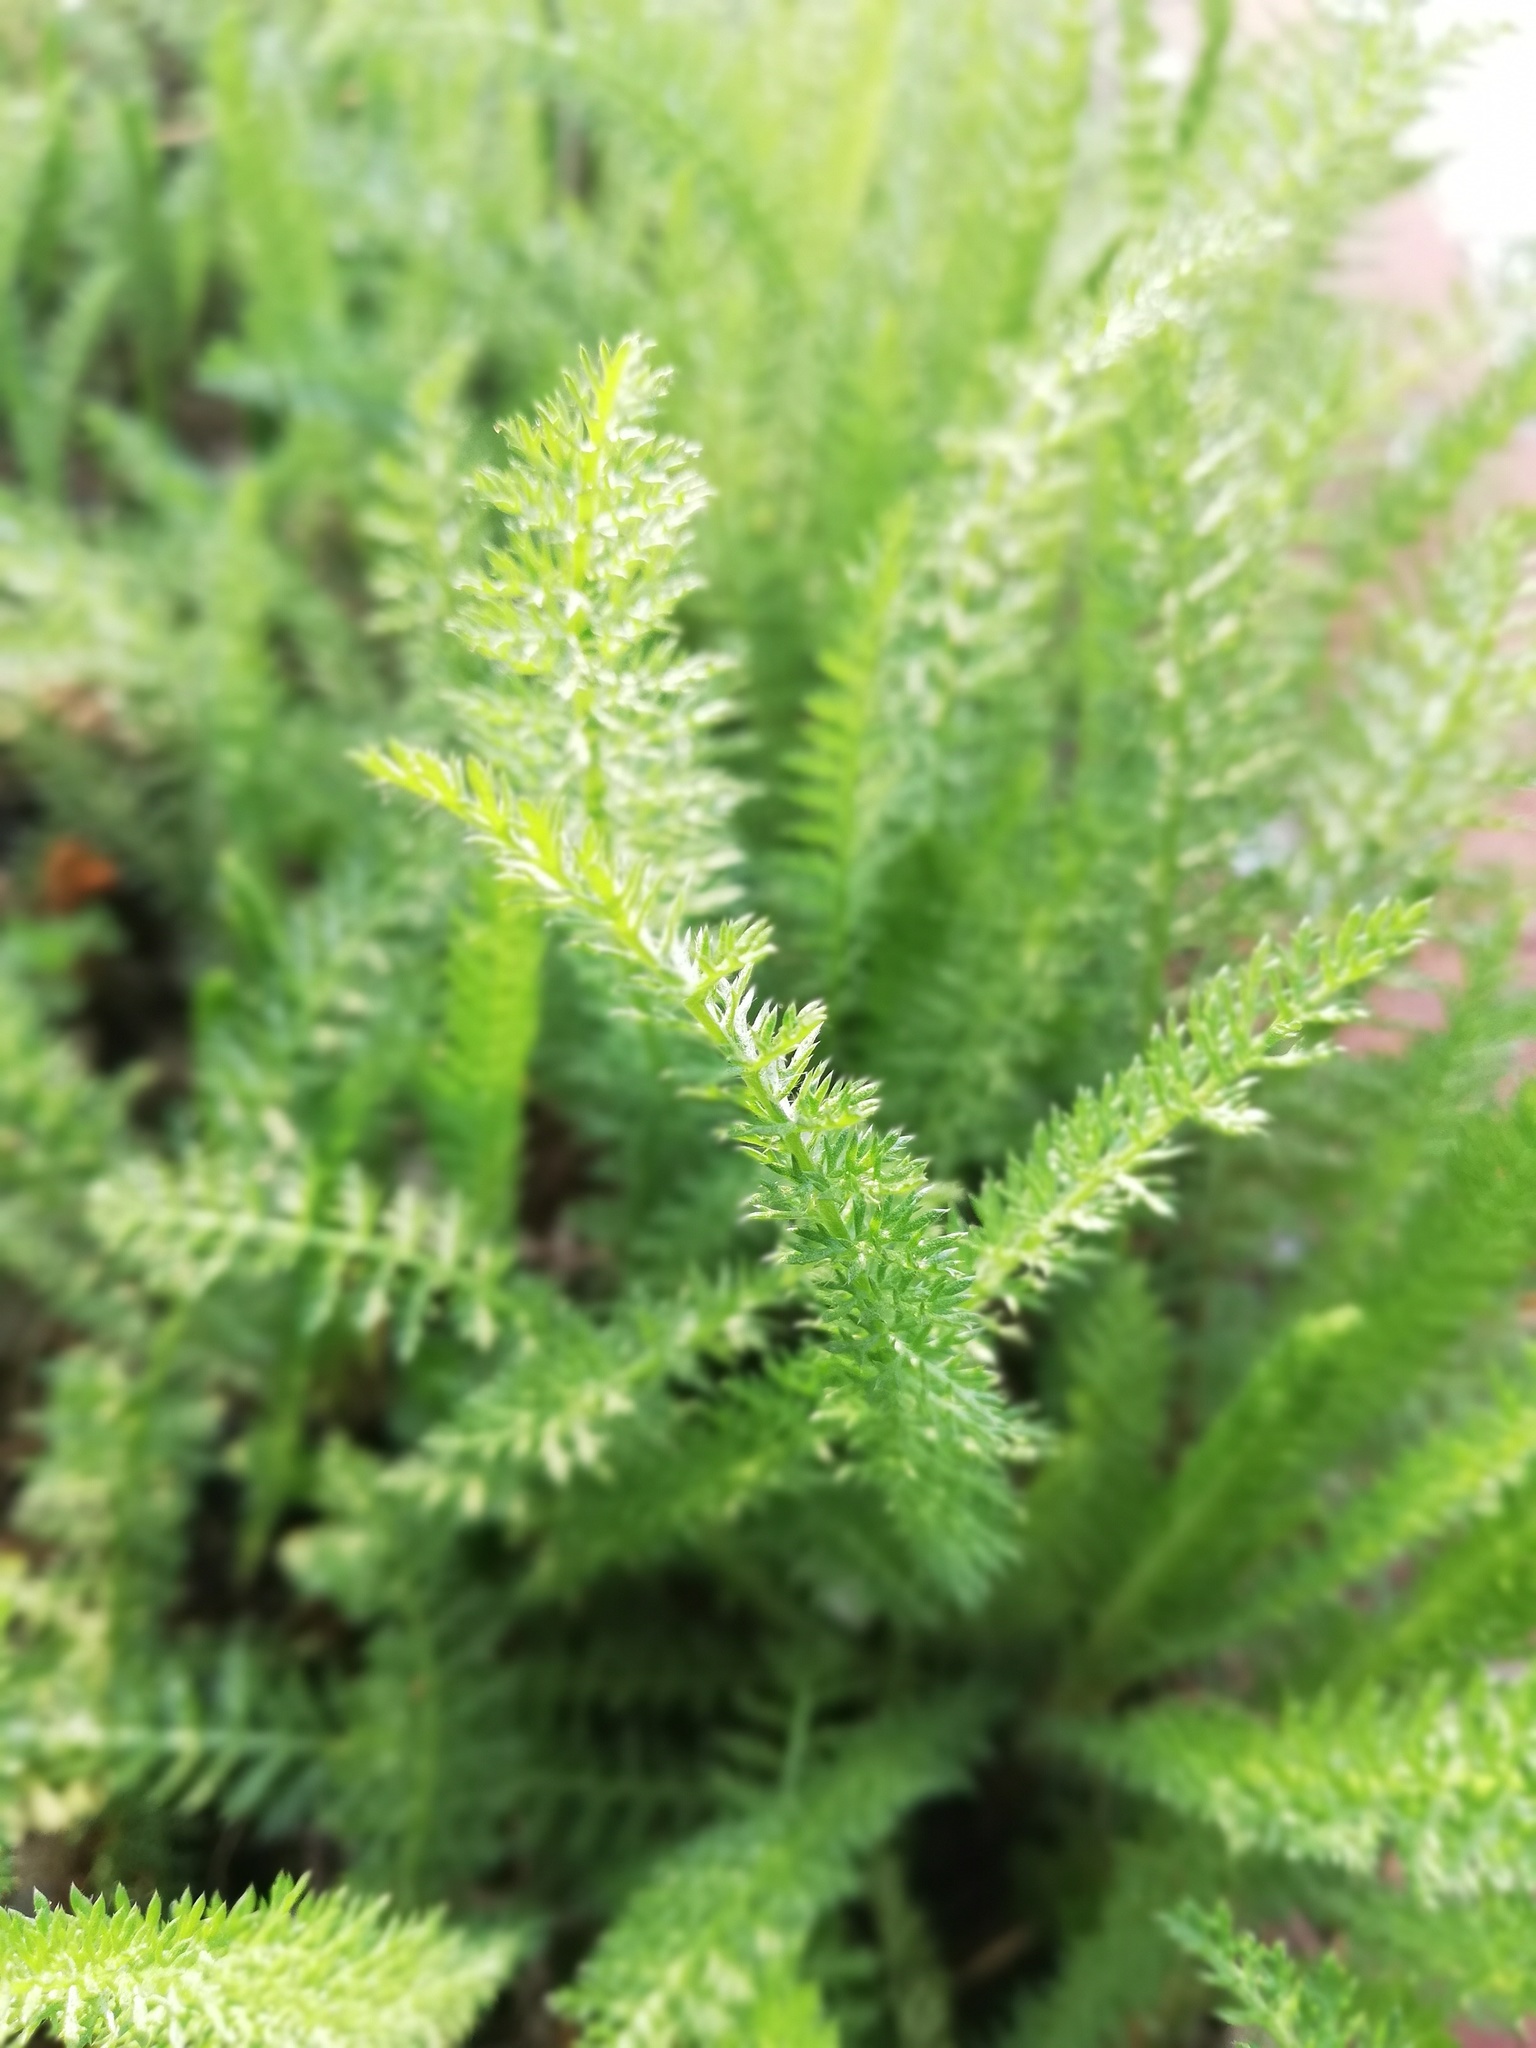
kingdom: Plantae
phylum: Tracheophyta
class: Magnoliopsida
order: Asterales
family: Asteraceae
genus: Achillea
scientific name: Achillea millefolium
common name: Yarrow
